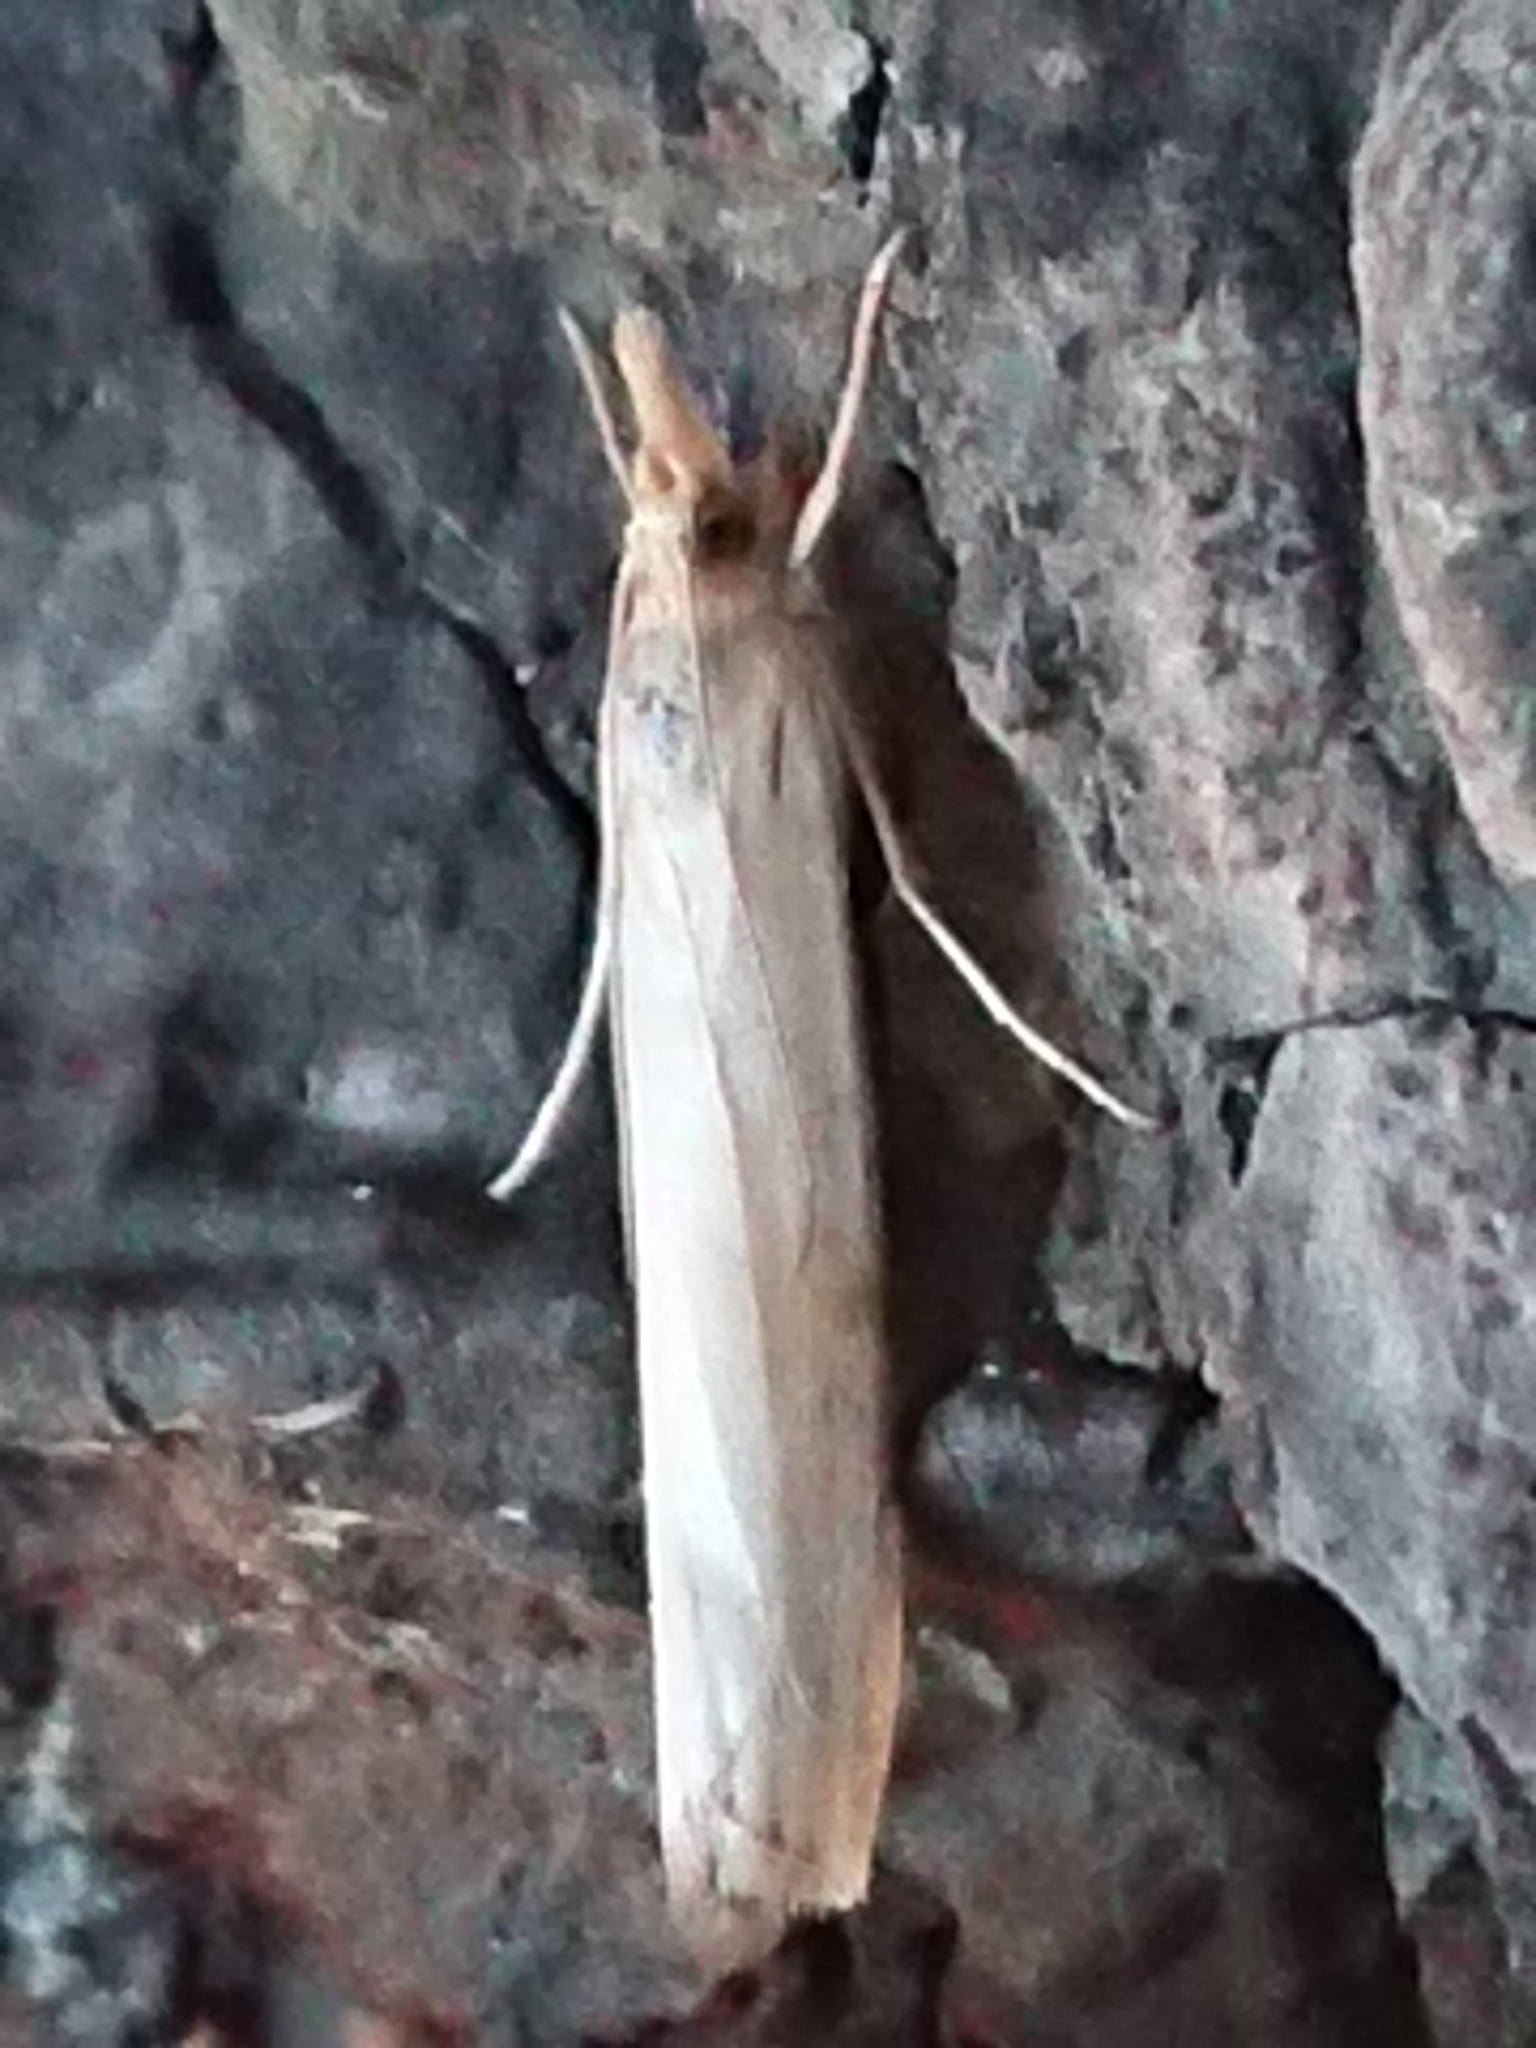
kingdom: Animalia
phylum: Arthropoda
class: Insecta
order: Lepidoptera
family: Crambidae
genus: Orocrambus
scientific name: Orocrambus flexuosellus
